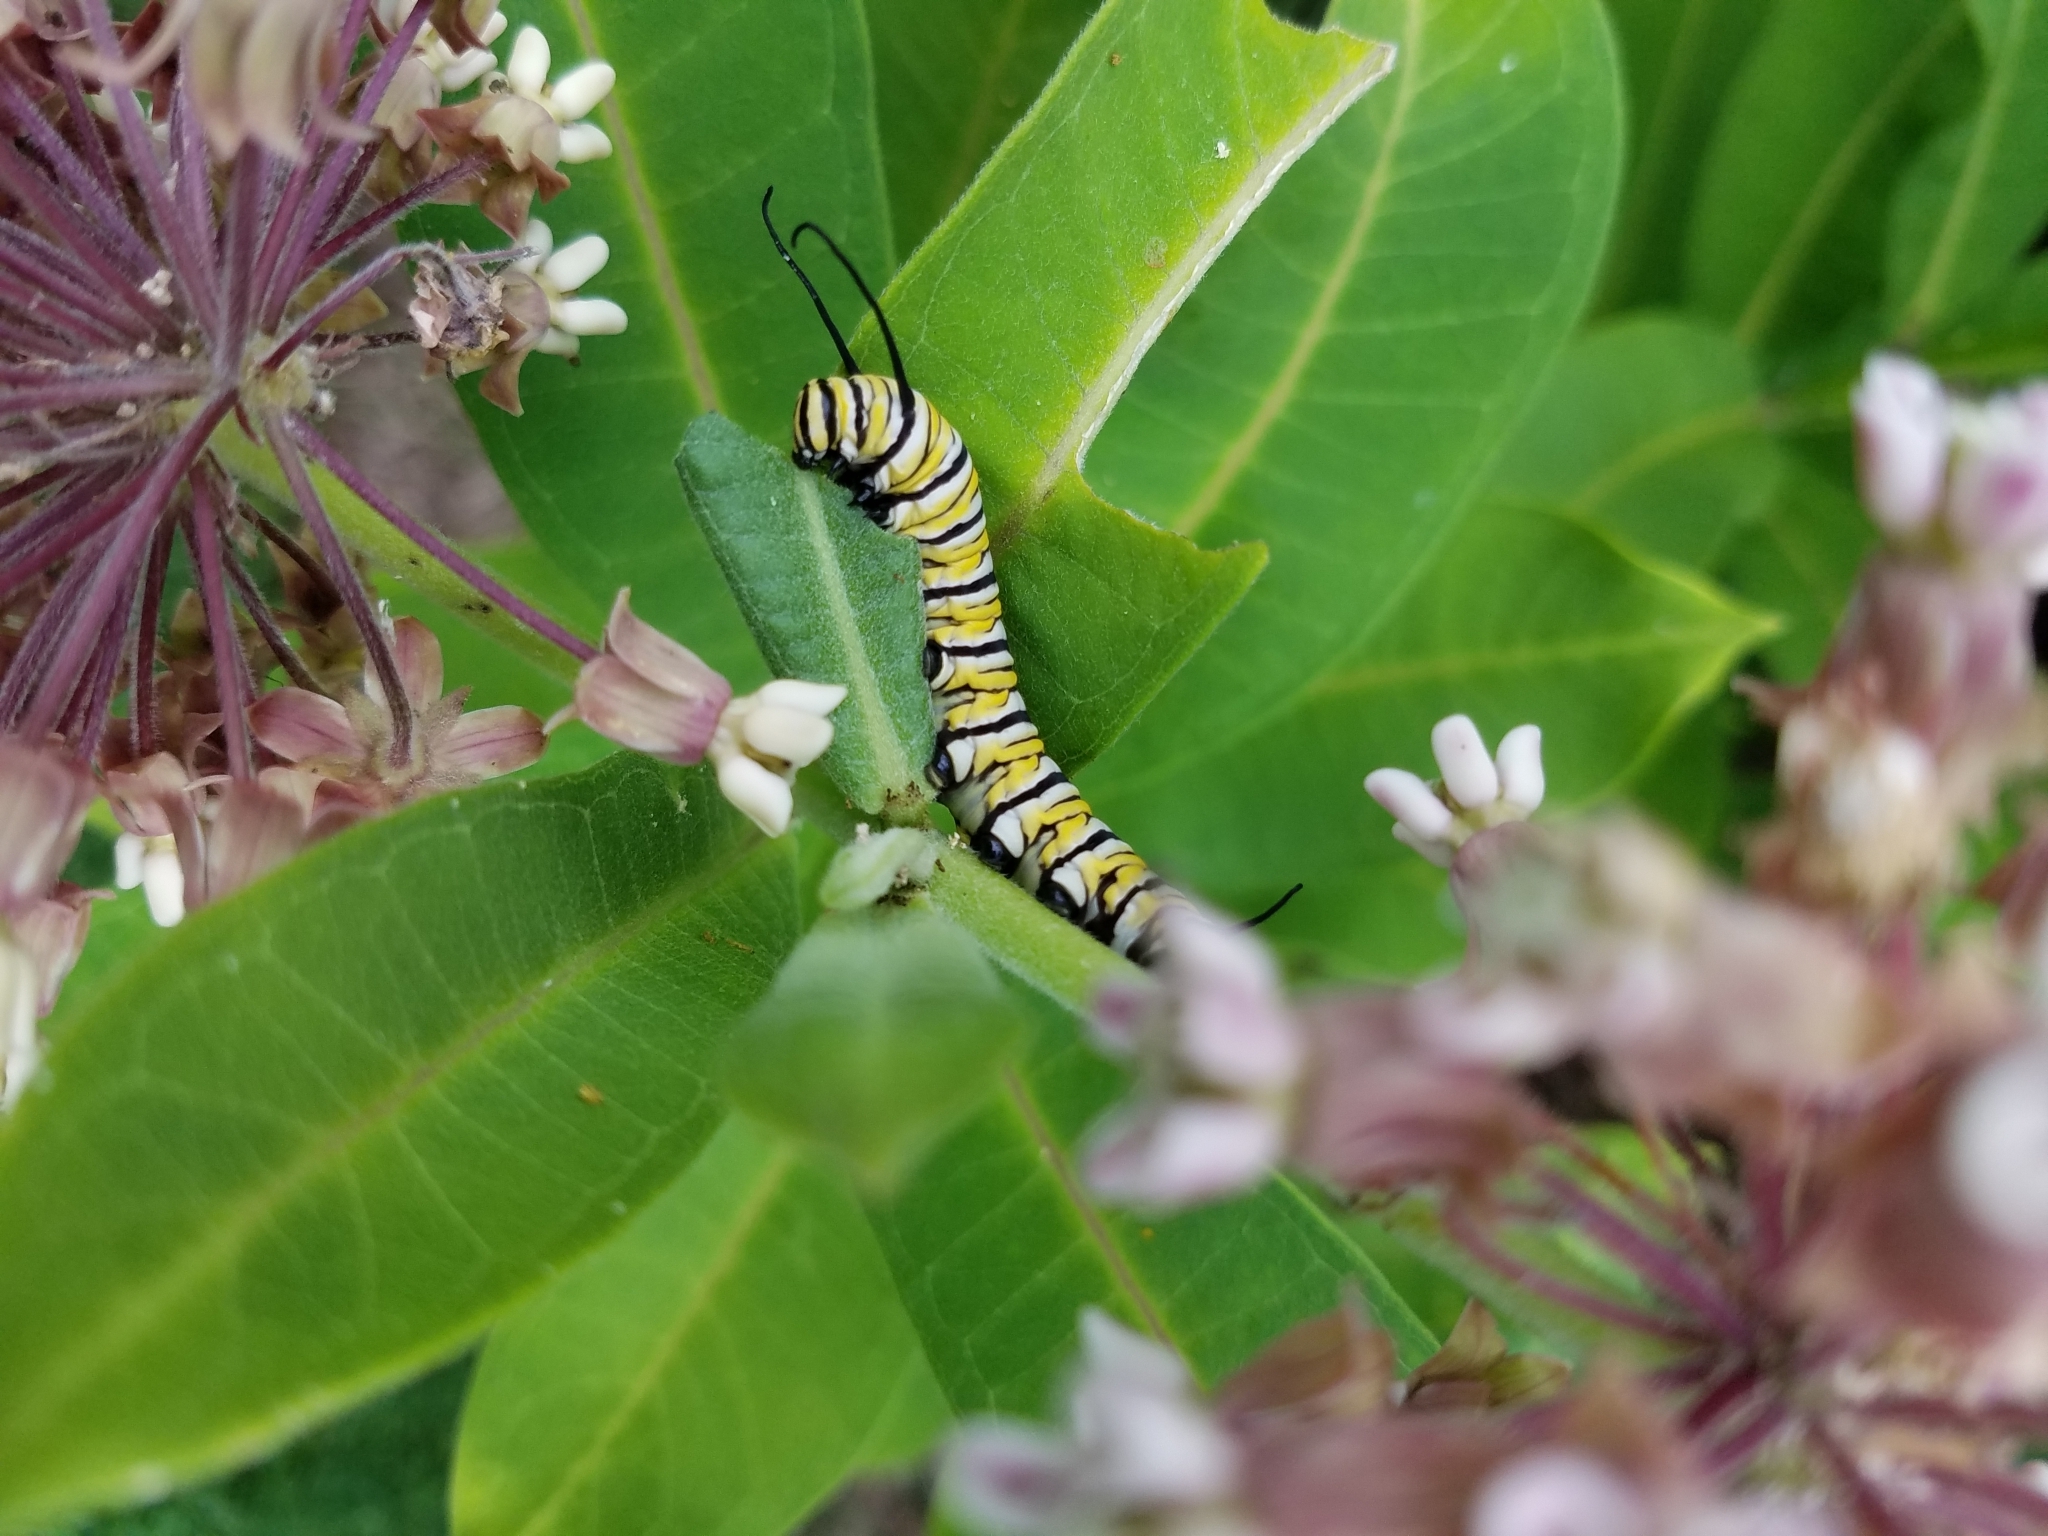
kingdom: Animalia
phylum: Arthropoda
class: Insecta
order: Lepidoptera
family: Nymphalidae
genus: Danaus
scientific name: Danaus plexippus
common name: Monarch
